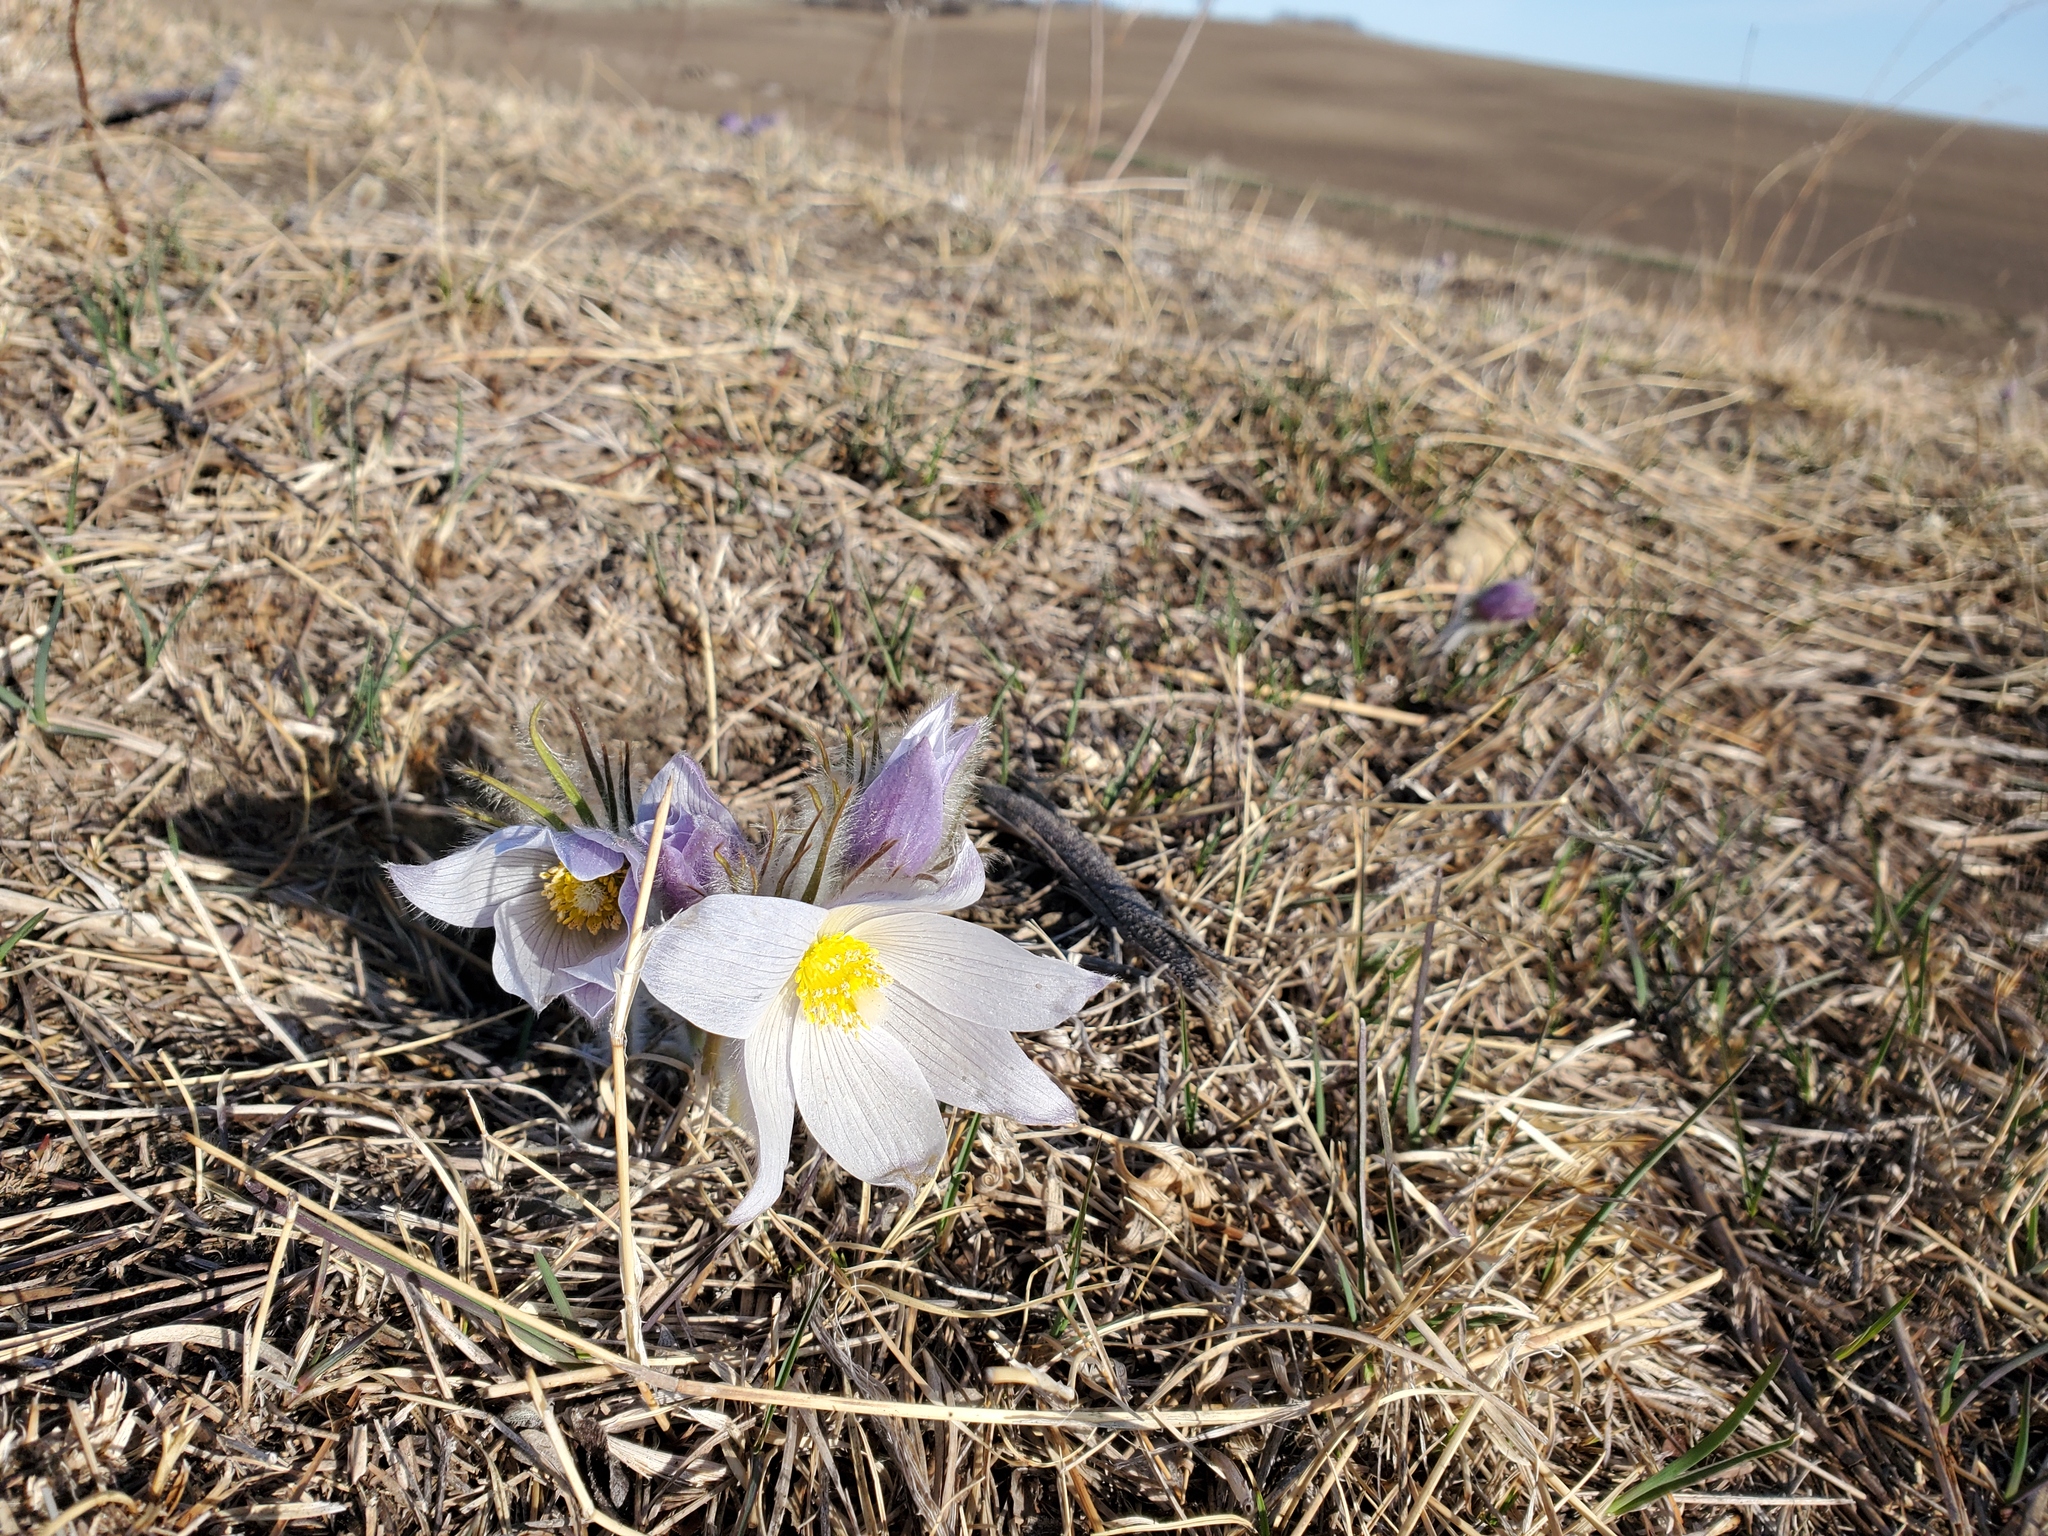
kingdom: Plantae
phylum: Tracheophyta
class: Magnoliopsida
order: Ranunculales
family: Ranunculaceae
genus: Pulsatilla
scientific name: Pulsatilla nuttalliana
